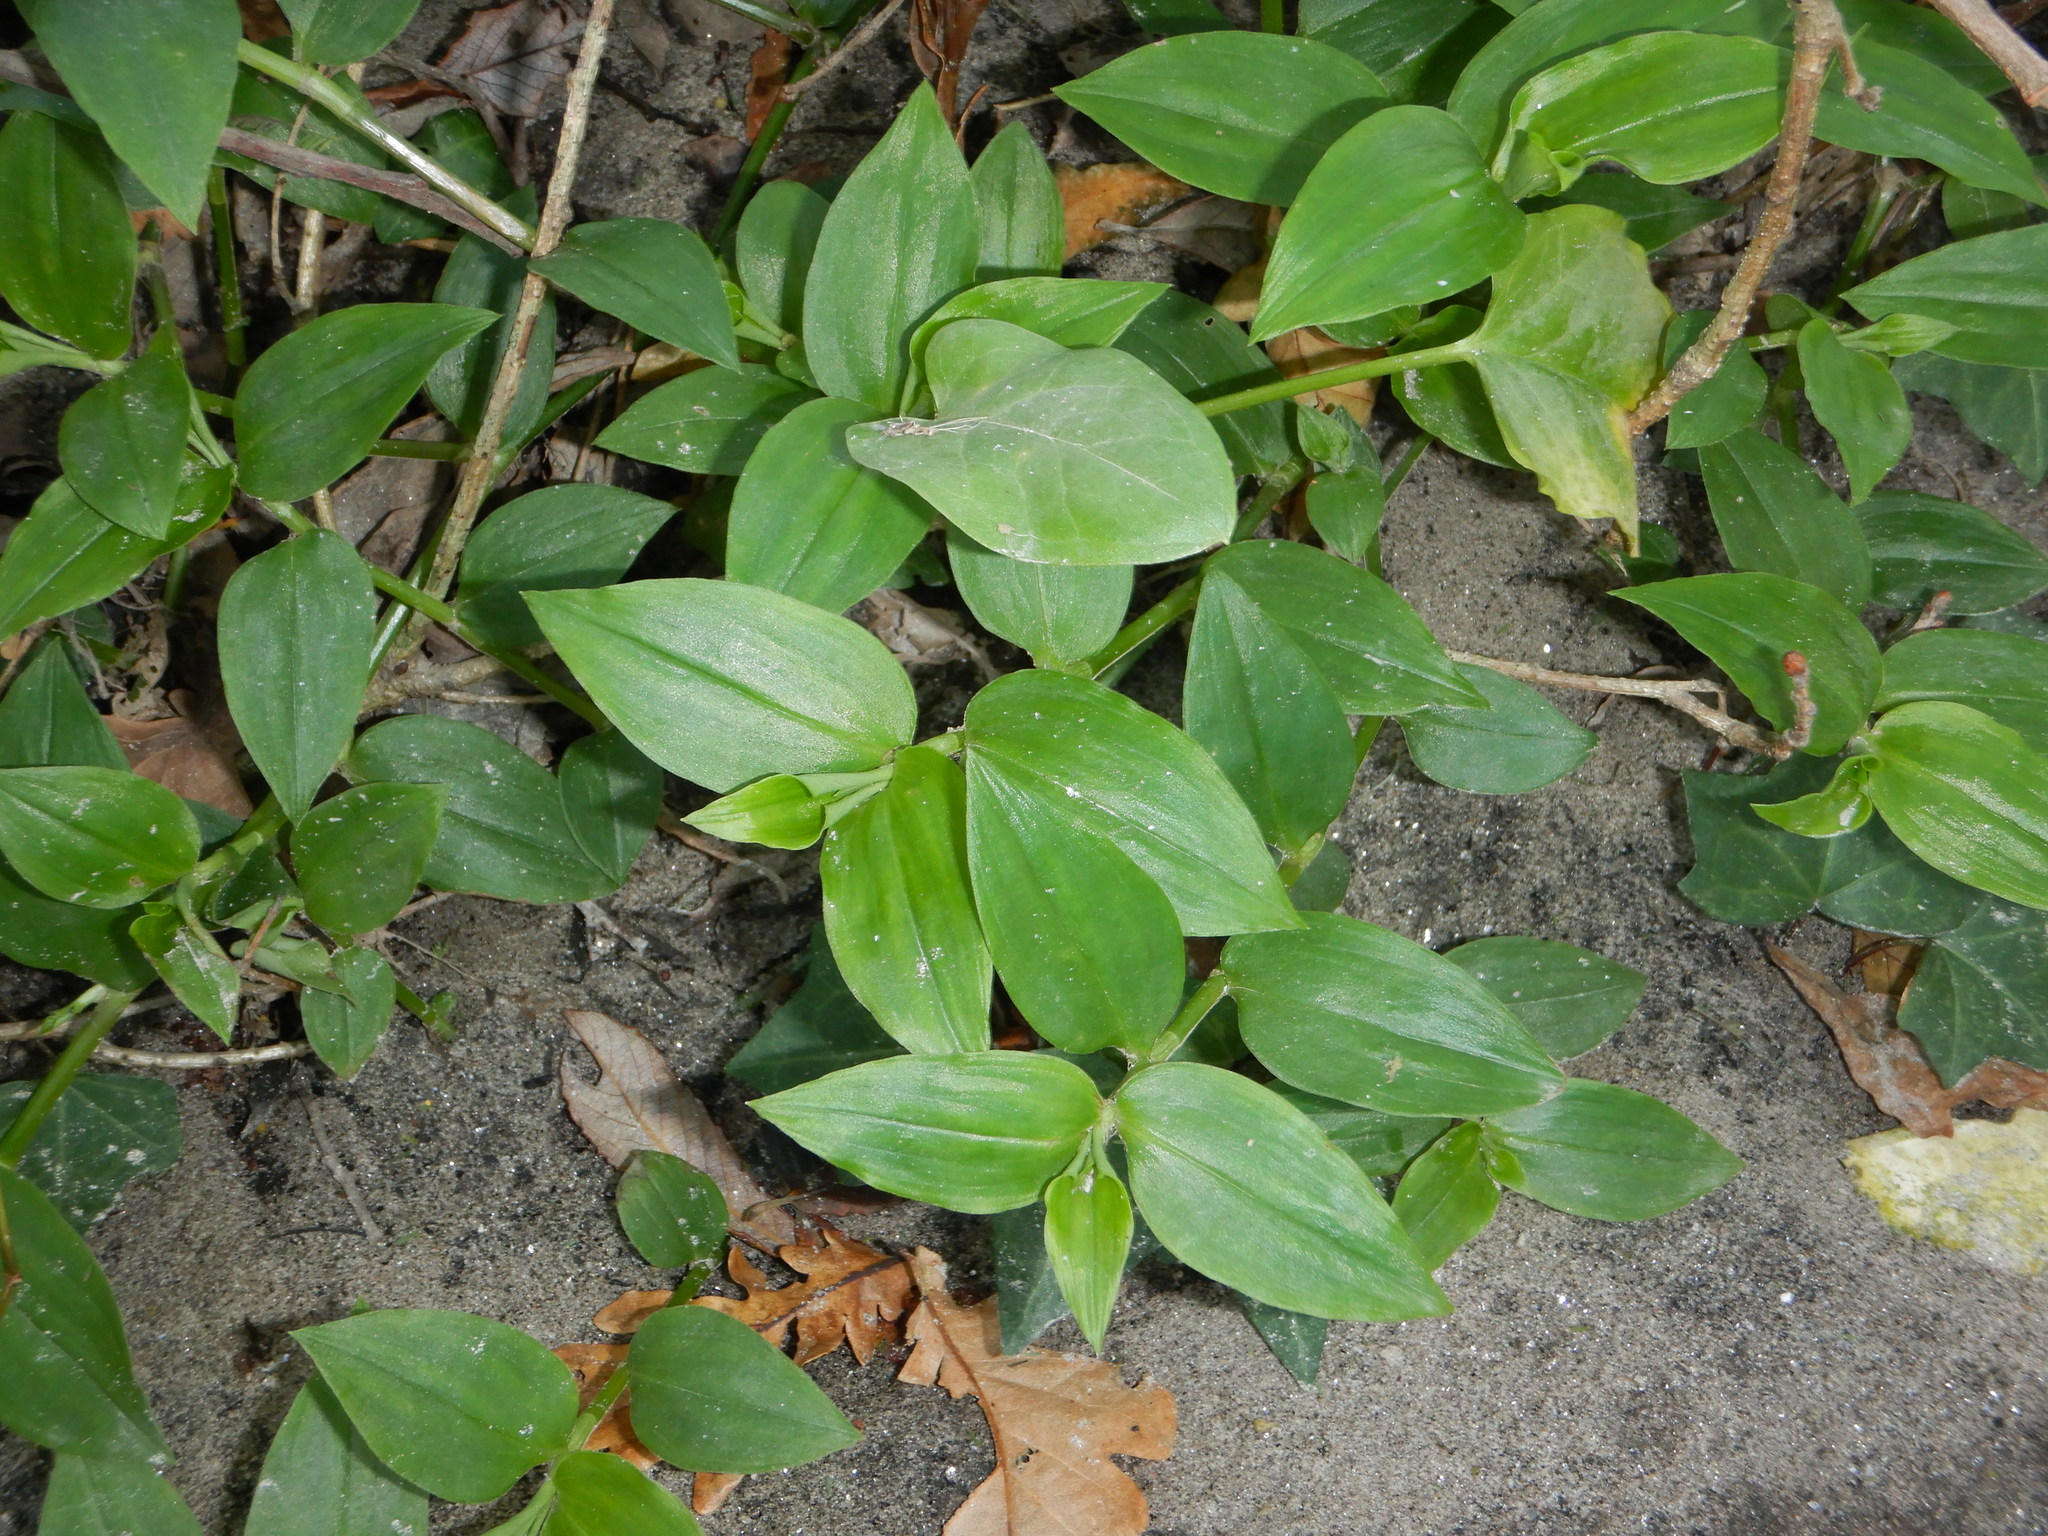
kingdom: Plantae
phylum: Tracheophyta
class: Liliopsida
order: Commelinales
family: Commelinaceae
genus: Tradescantia
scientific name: Tradescantia fluminensis
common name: Wandering-jew
